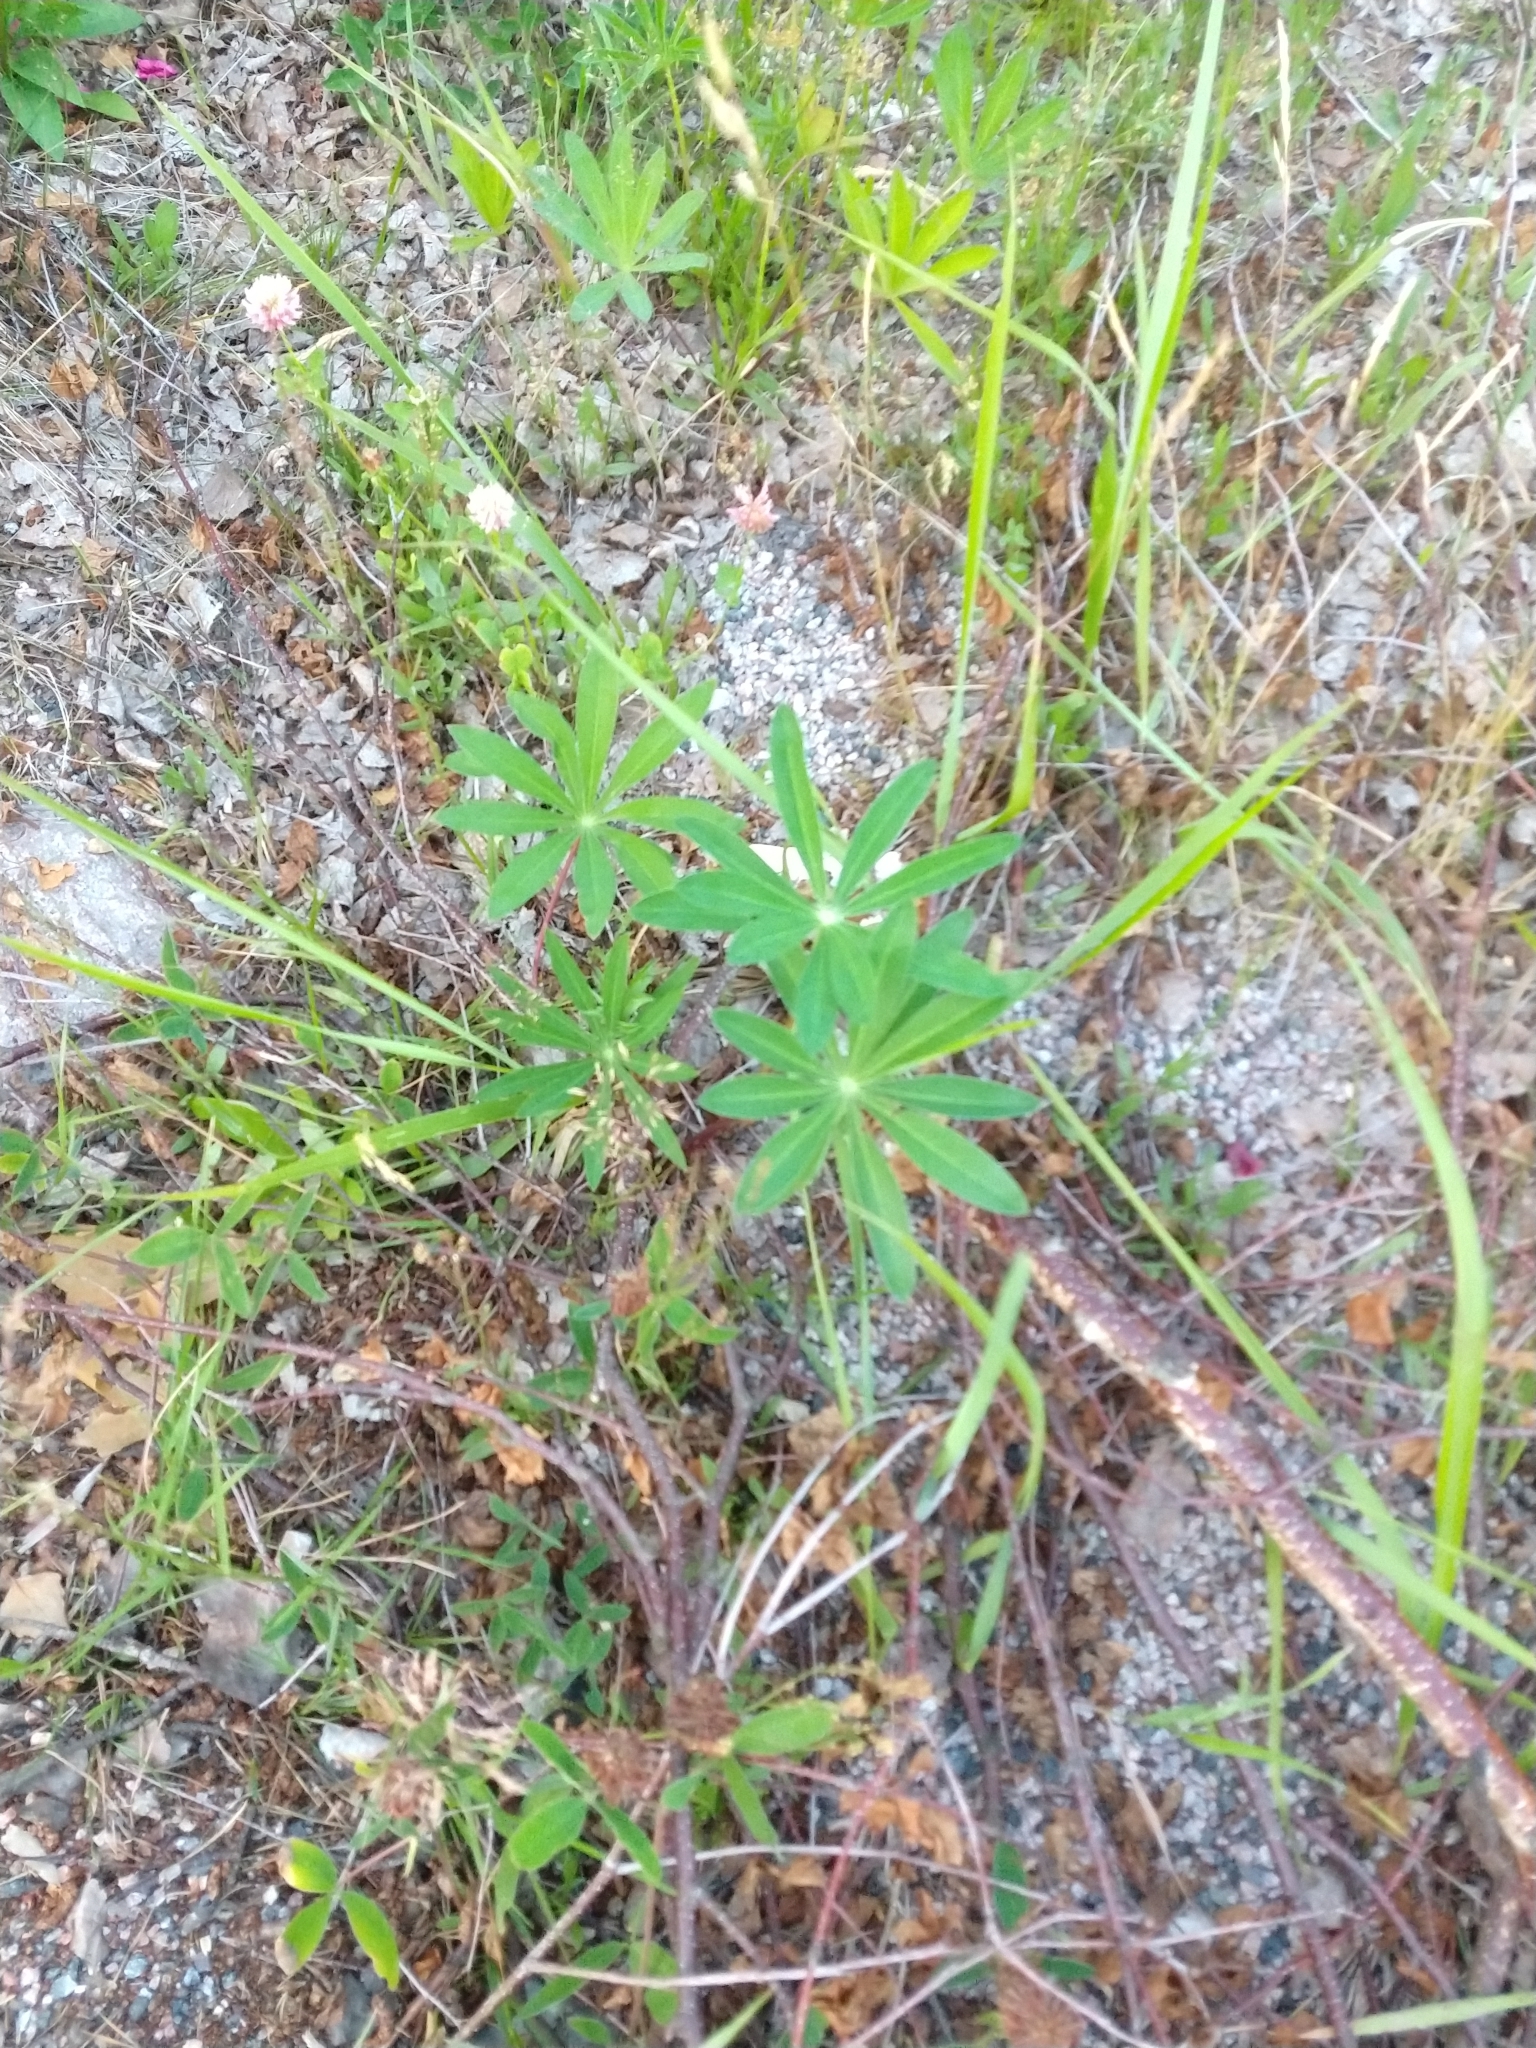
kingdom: Plantae
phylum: Tracheophyta
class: Magnoliopsida
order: Fabales
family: Fabaceae
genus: Lupinus
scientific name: Lupinus polyphyllus
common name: Garden lupin
